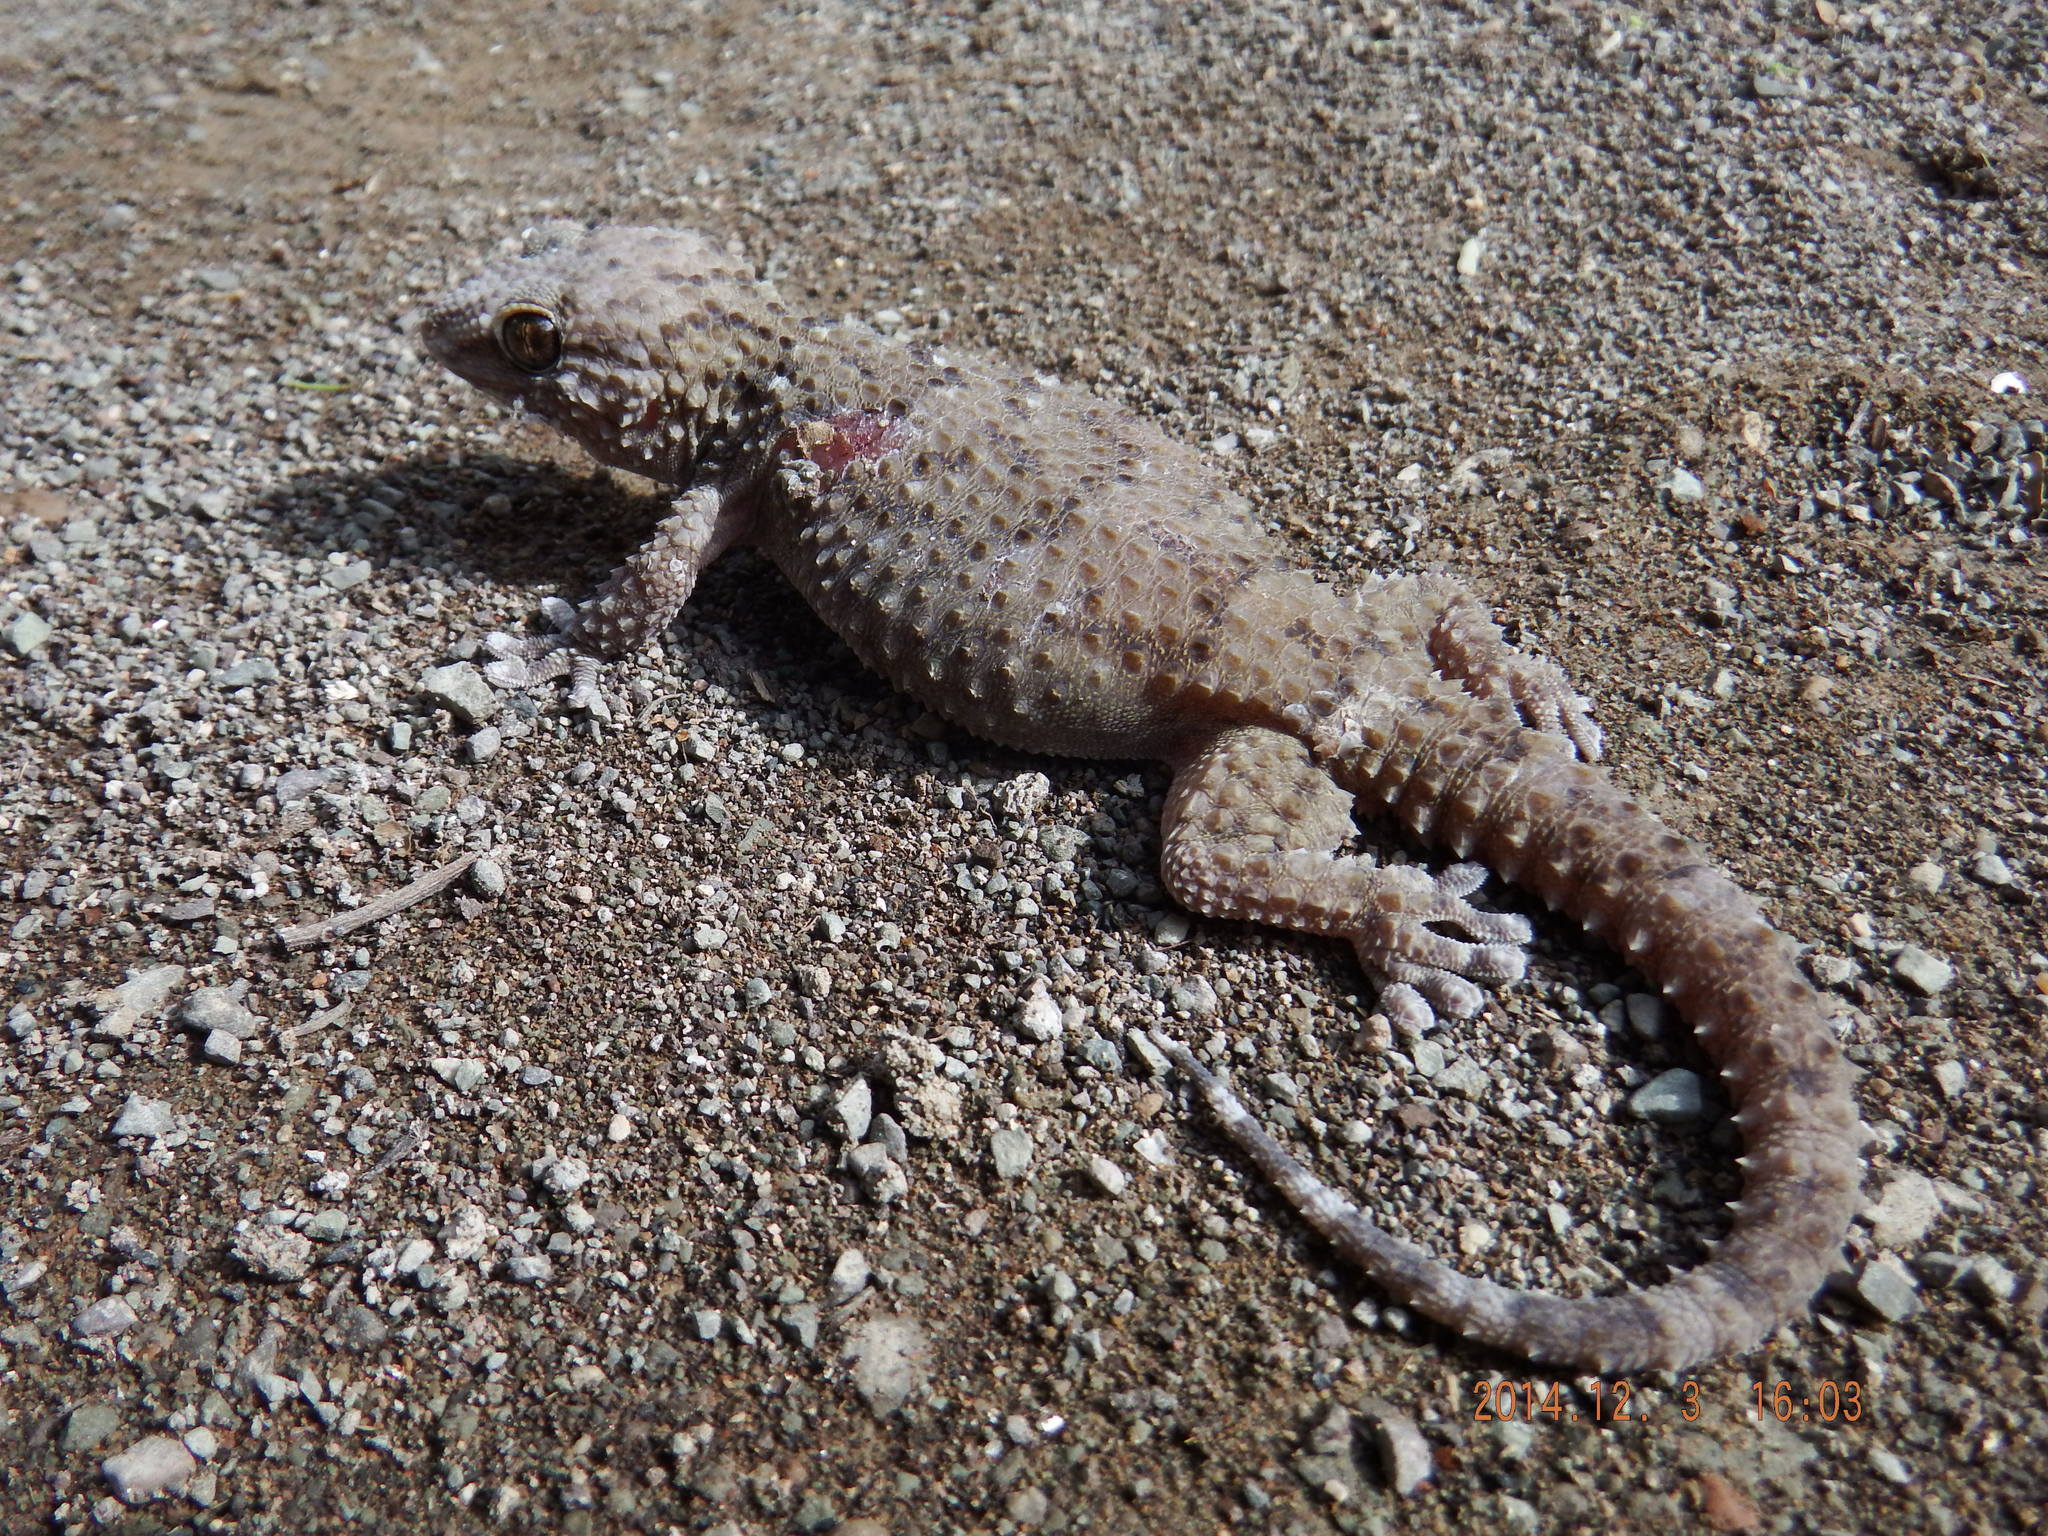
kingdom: Animalia
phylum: Chordata
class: Squamata
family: Gekkonidae
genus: Chondrodactylus
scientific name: Chondrodactylus bibronii
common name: Bibron's gecko
